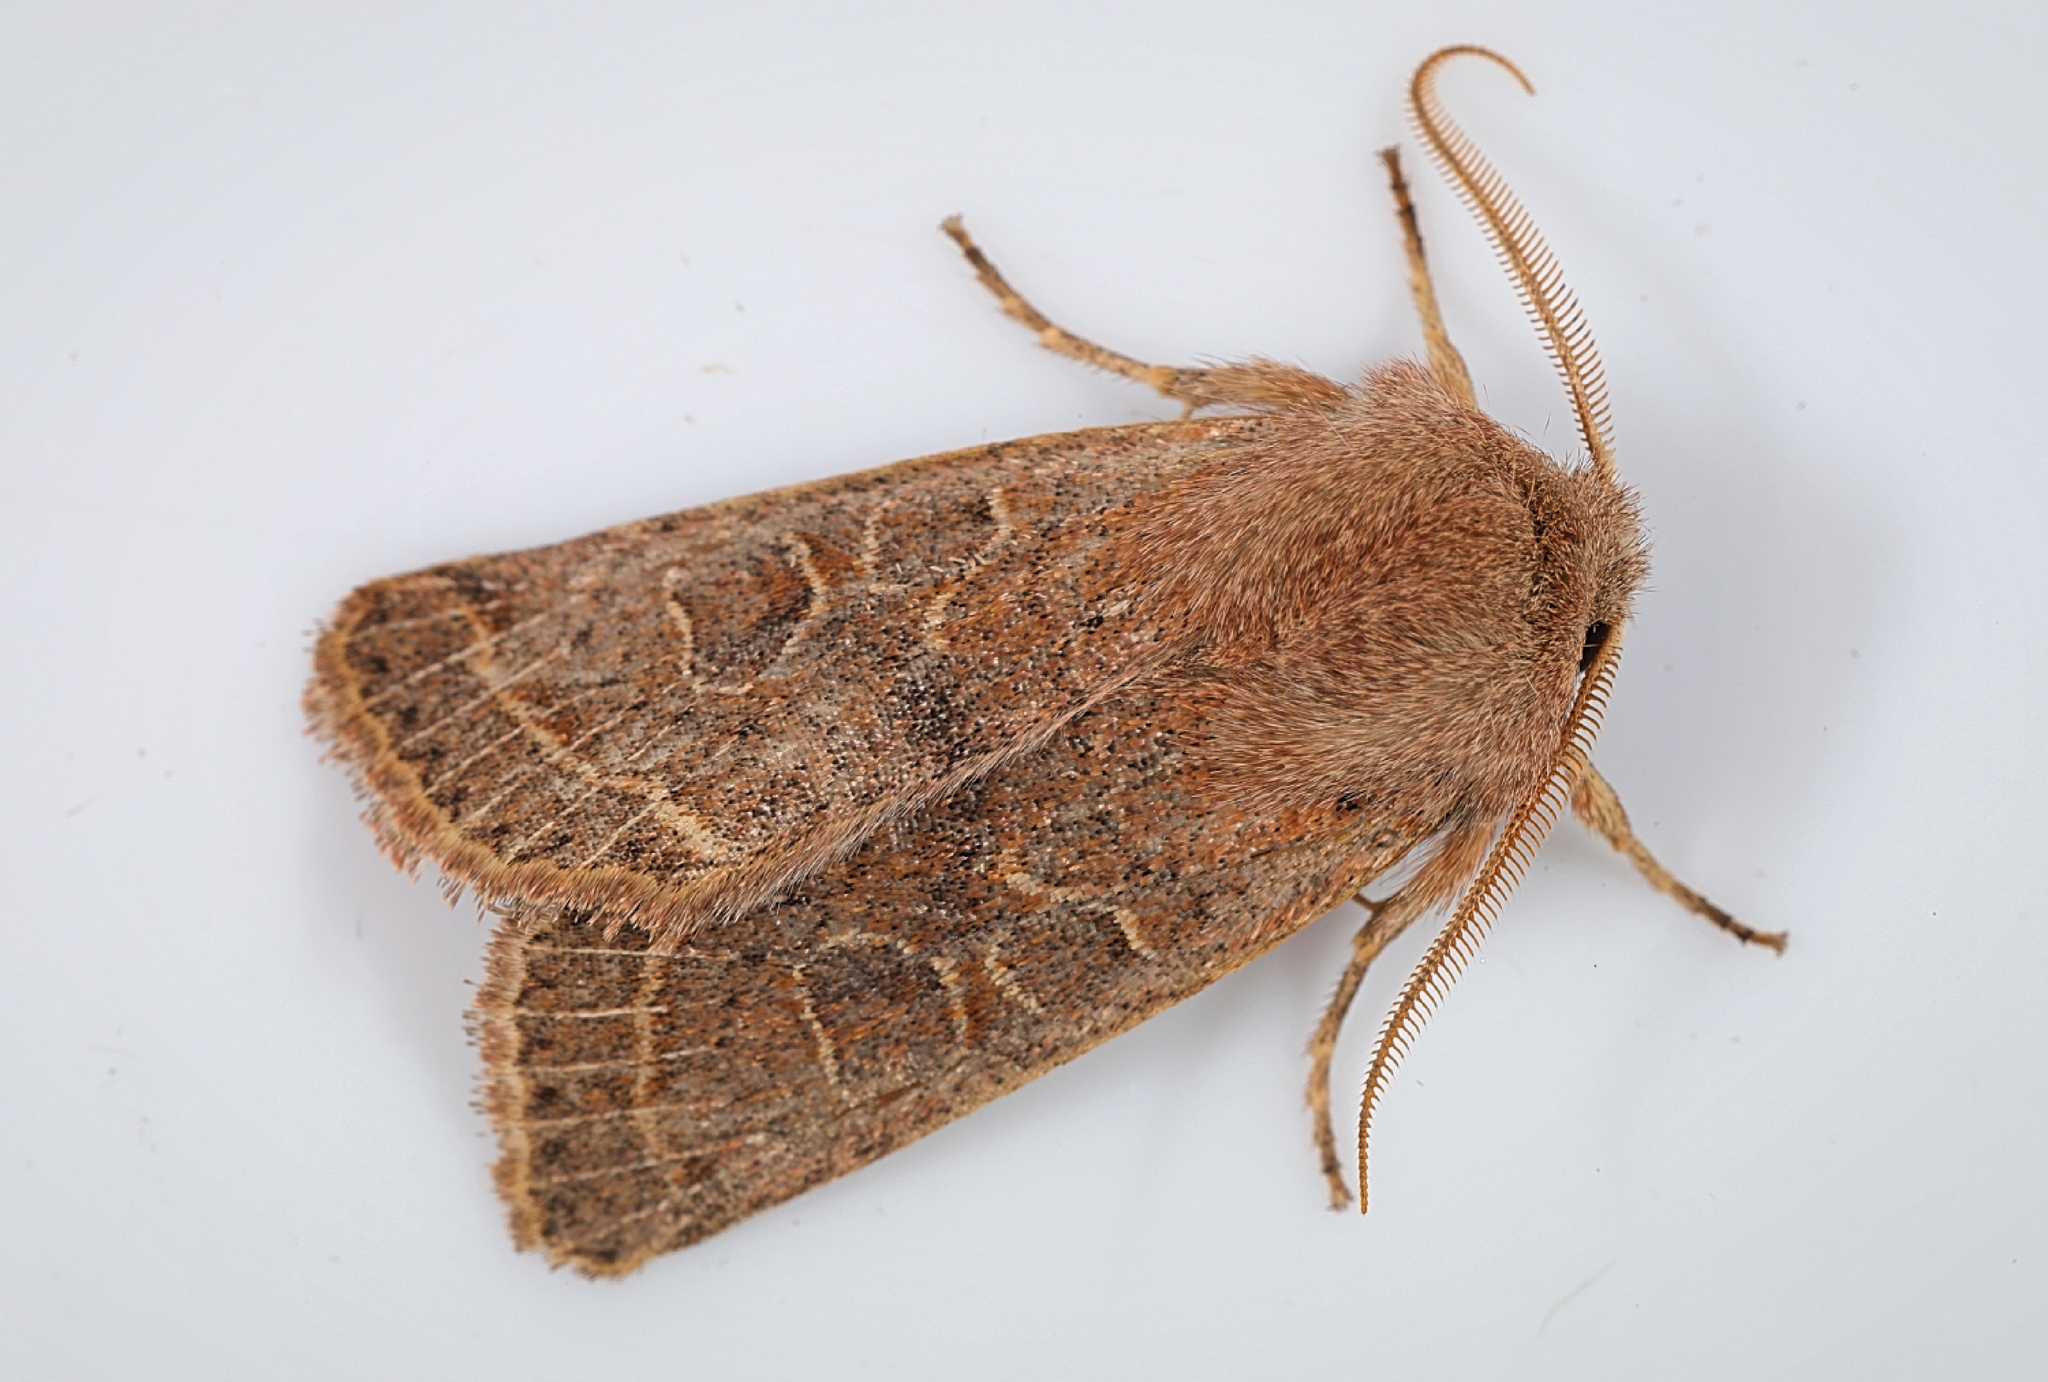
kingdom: Animalia
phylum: Arthropoda
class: Insecta
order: Lepidoptera
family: Noctuidae
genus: Orthosia
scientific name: Orthosia cerasi
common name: Common quaker
